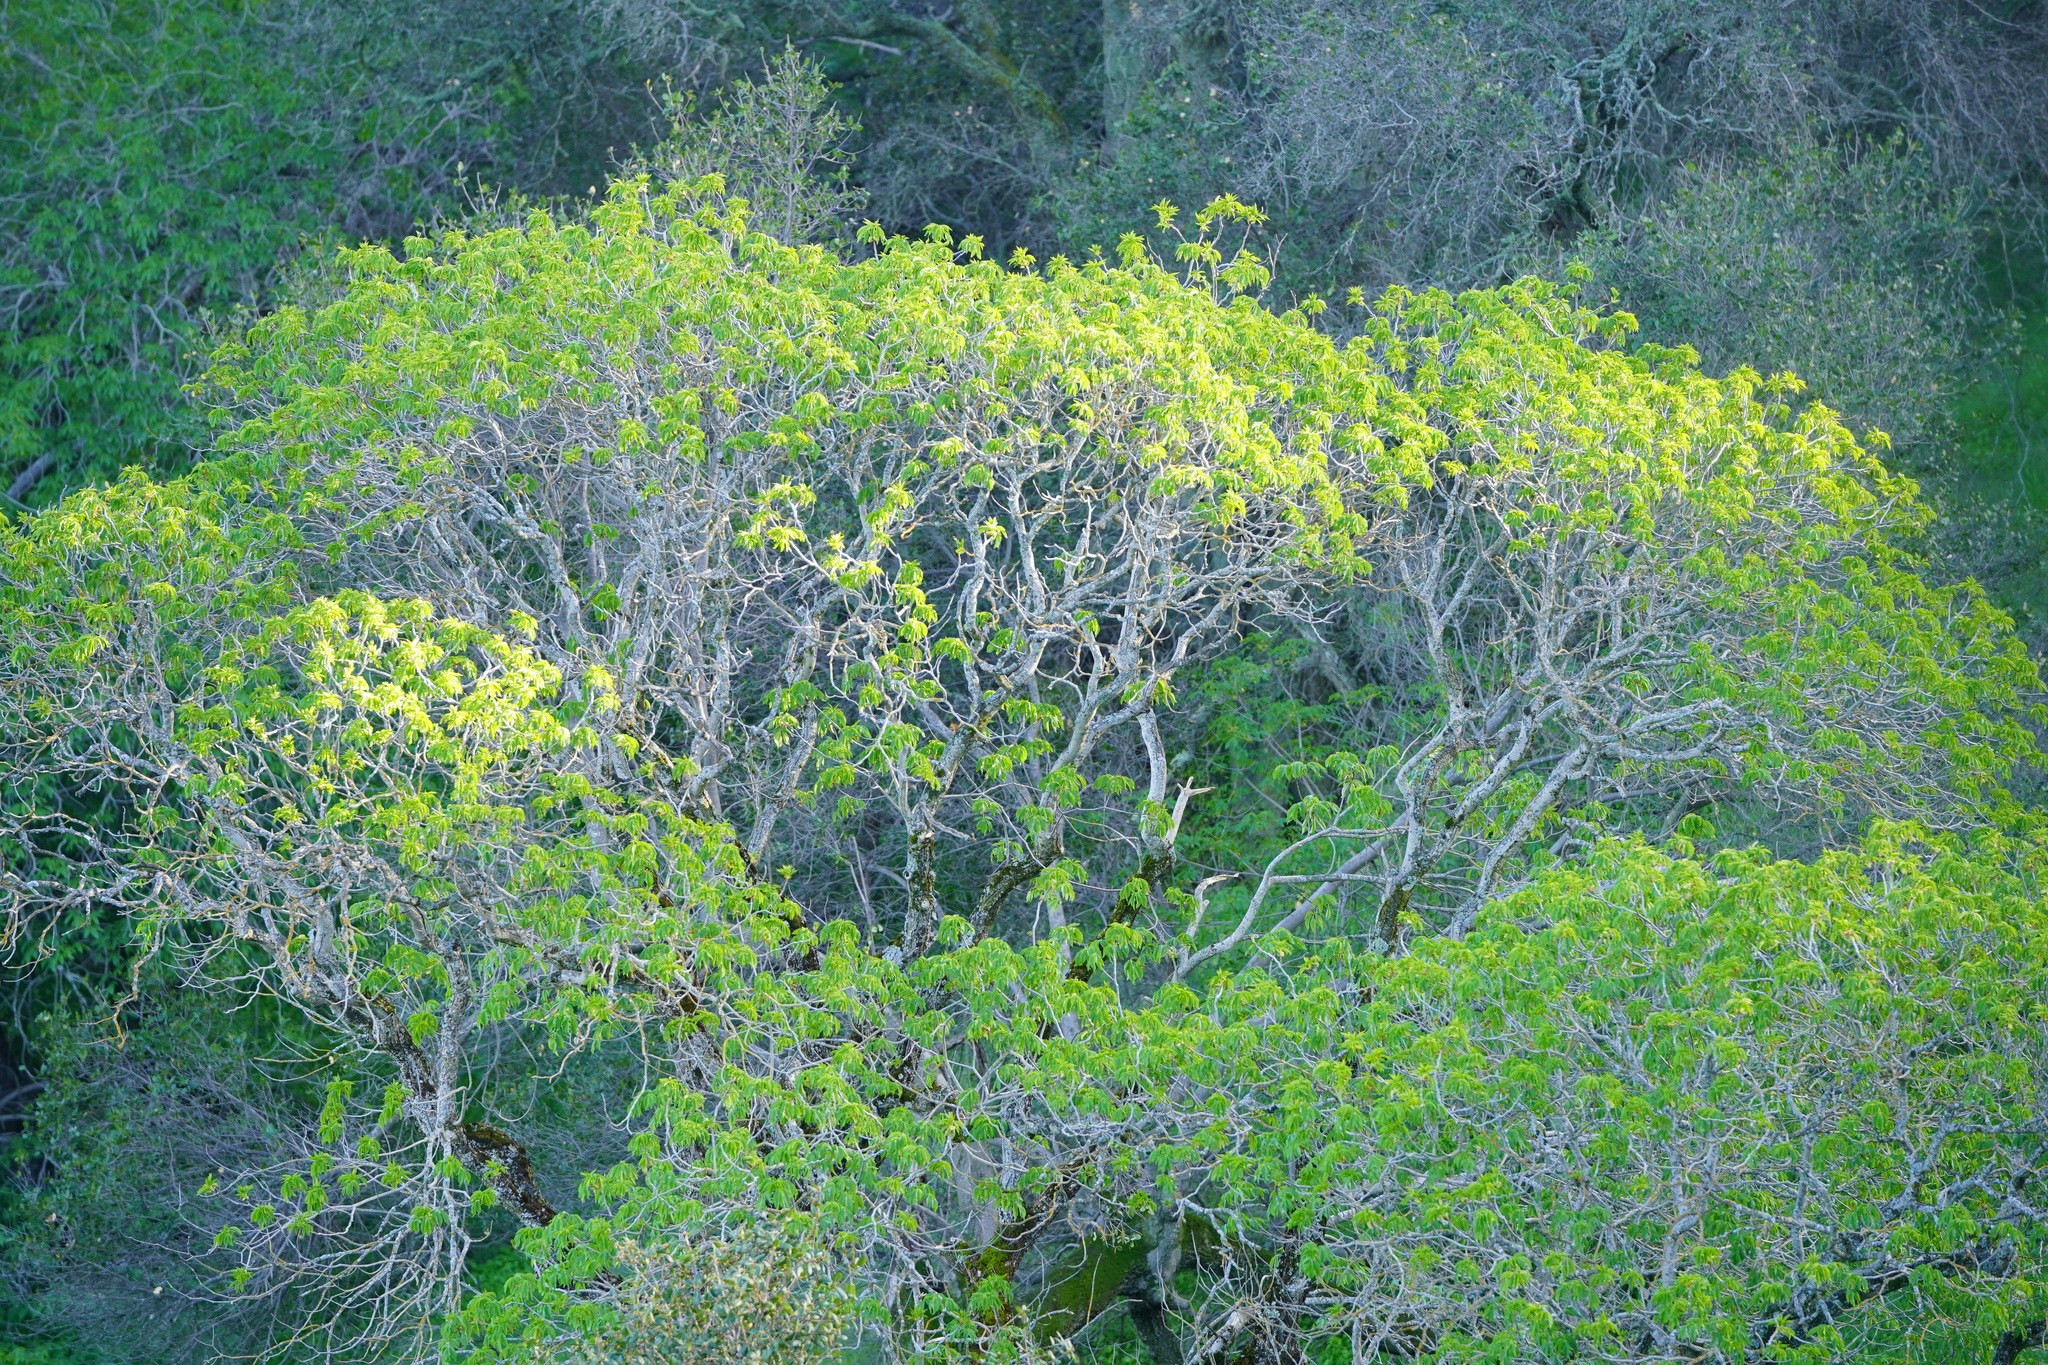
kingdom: Plantae
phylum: Tracheophyta
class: Magnoliopsida
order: Sapindales
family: Sapindaceae
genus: Aesculus
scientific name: Aesculus californica
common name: California buckeye
